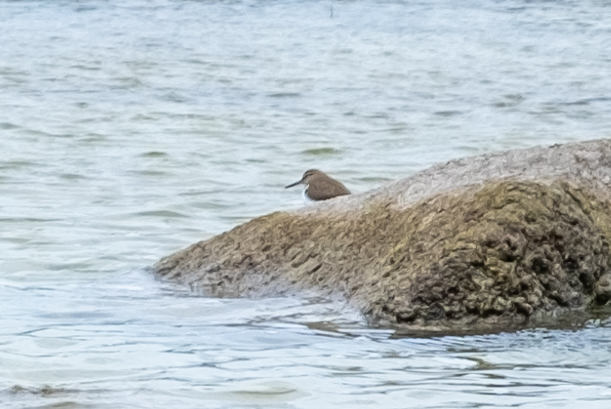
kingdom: Animalia
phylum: Chordata
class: Aves
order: Charadriiformes
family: Scolopacidae
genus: Actitis
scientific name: Actitis hypoleucos
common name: Common sandpiper
